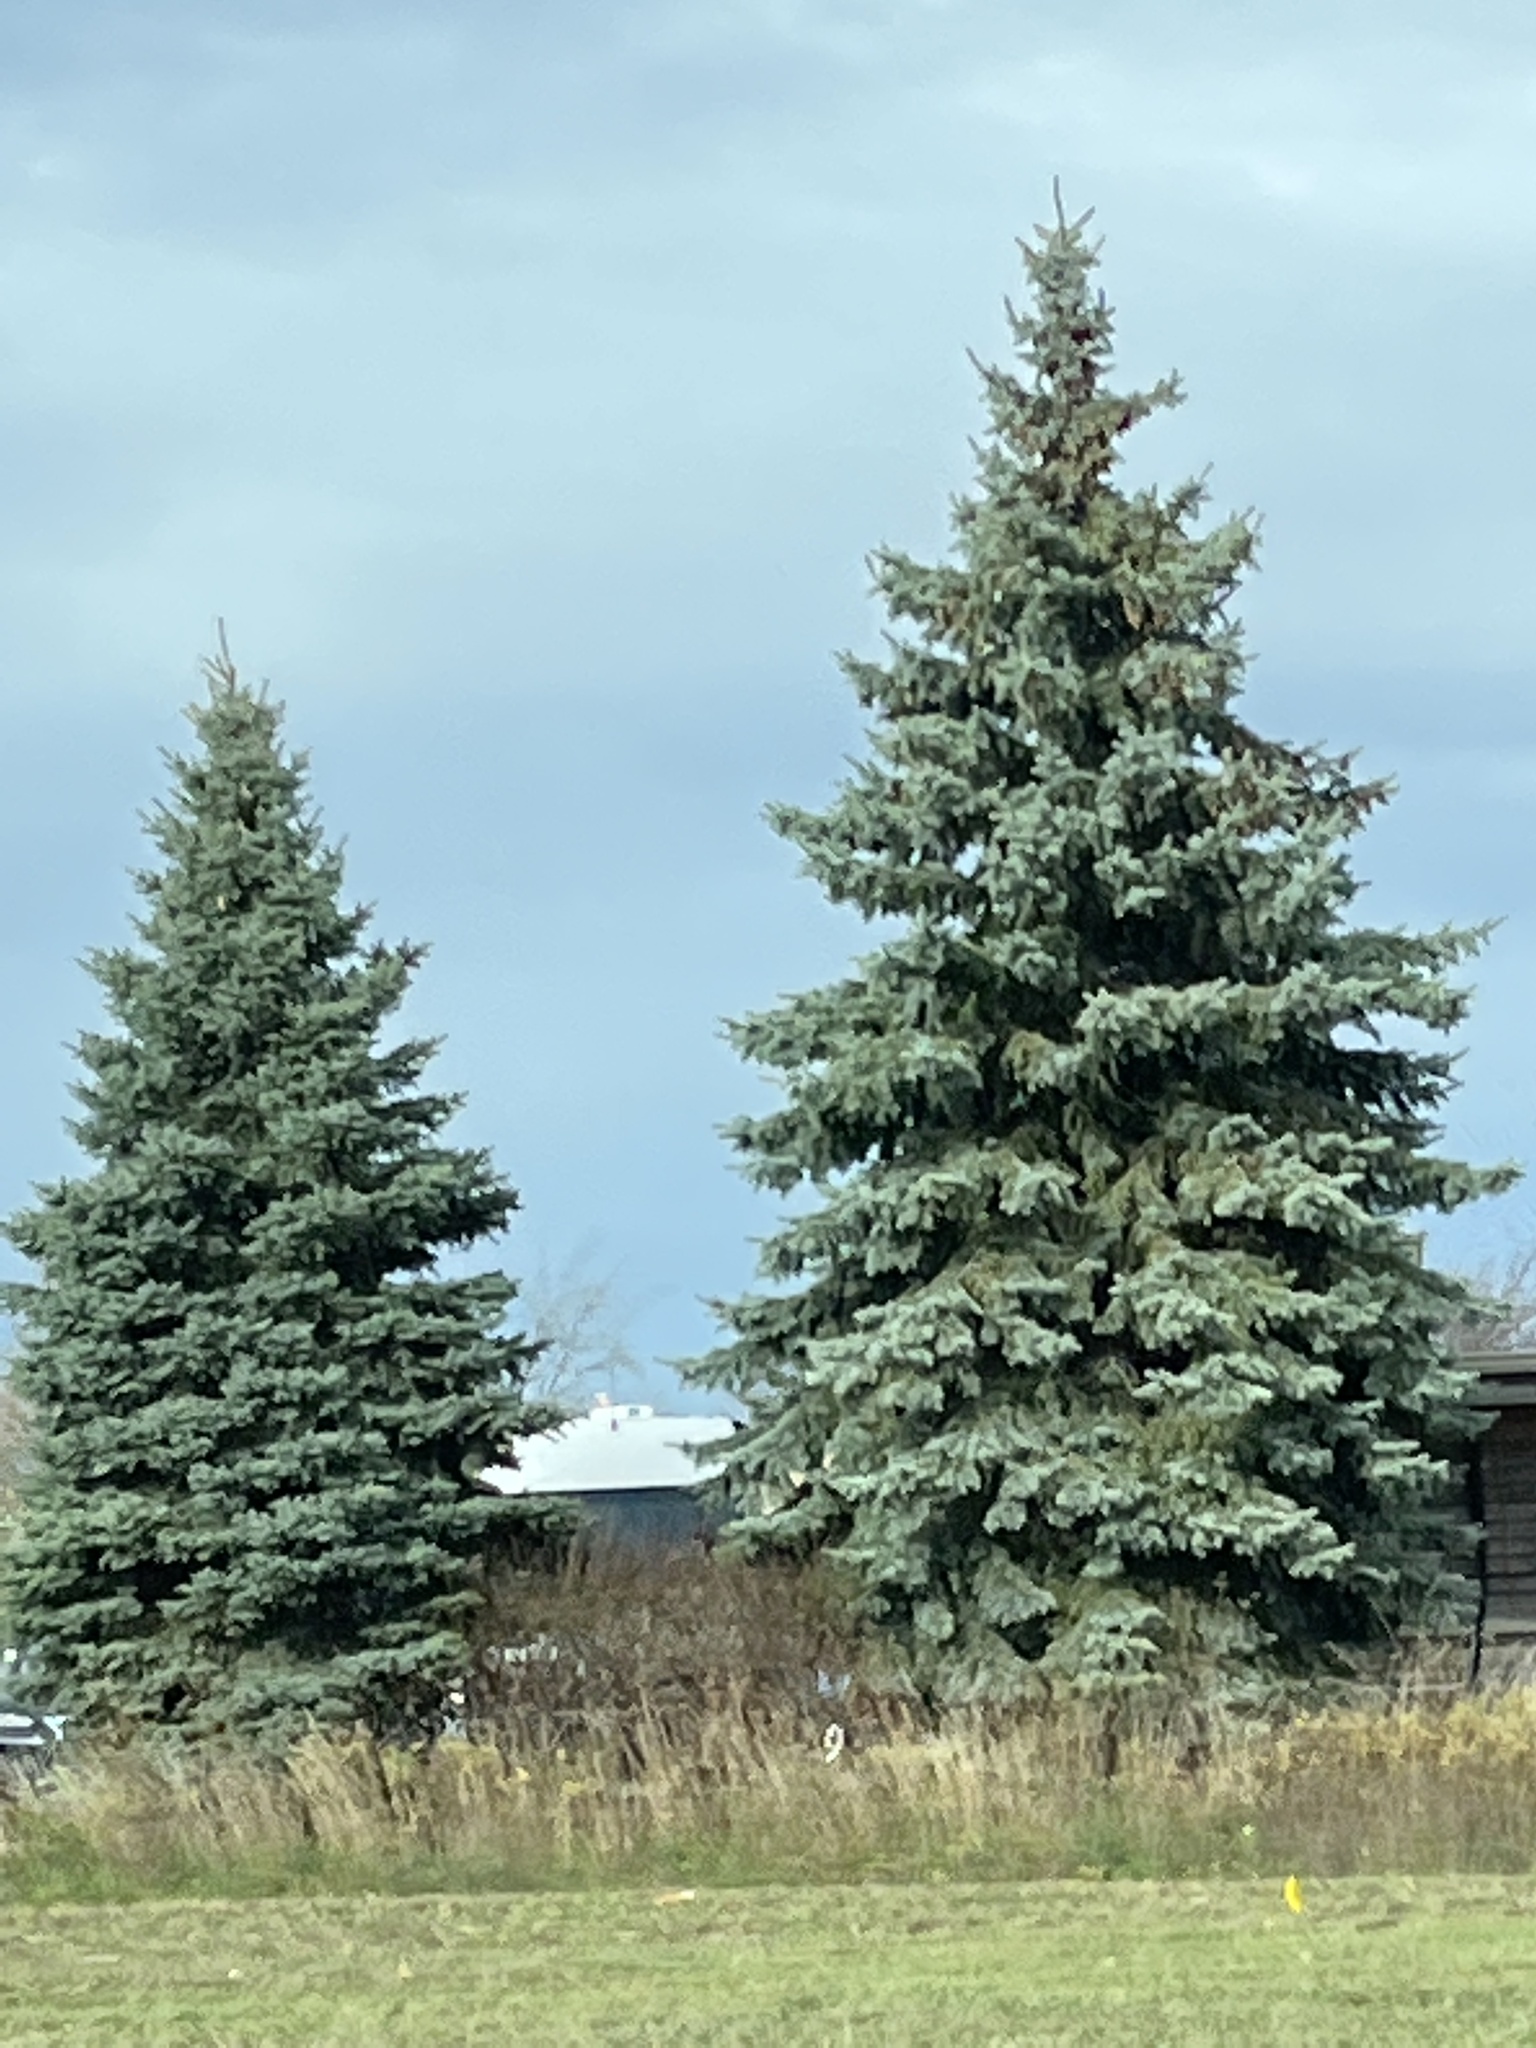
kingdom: Plantae
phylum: Tracheophyta
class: Pinopsida
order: Pinales
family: Pinaceae
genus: Picea
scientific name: Picea pungens
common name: Colorado spruce
